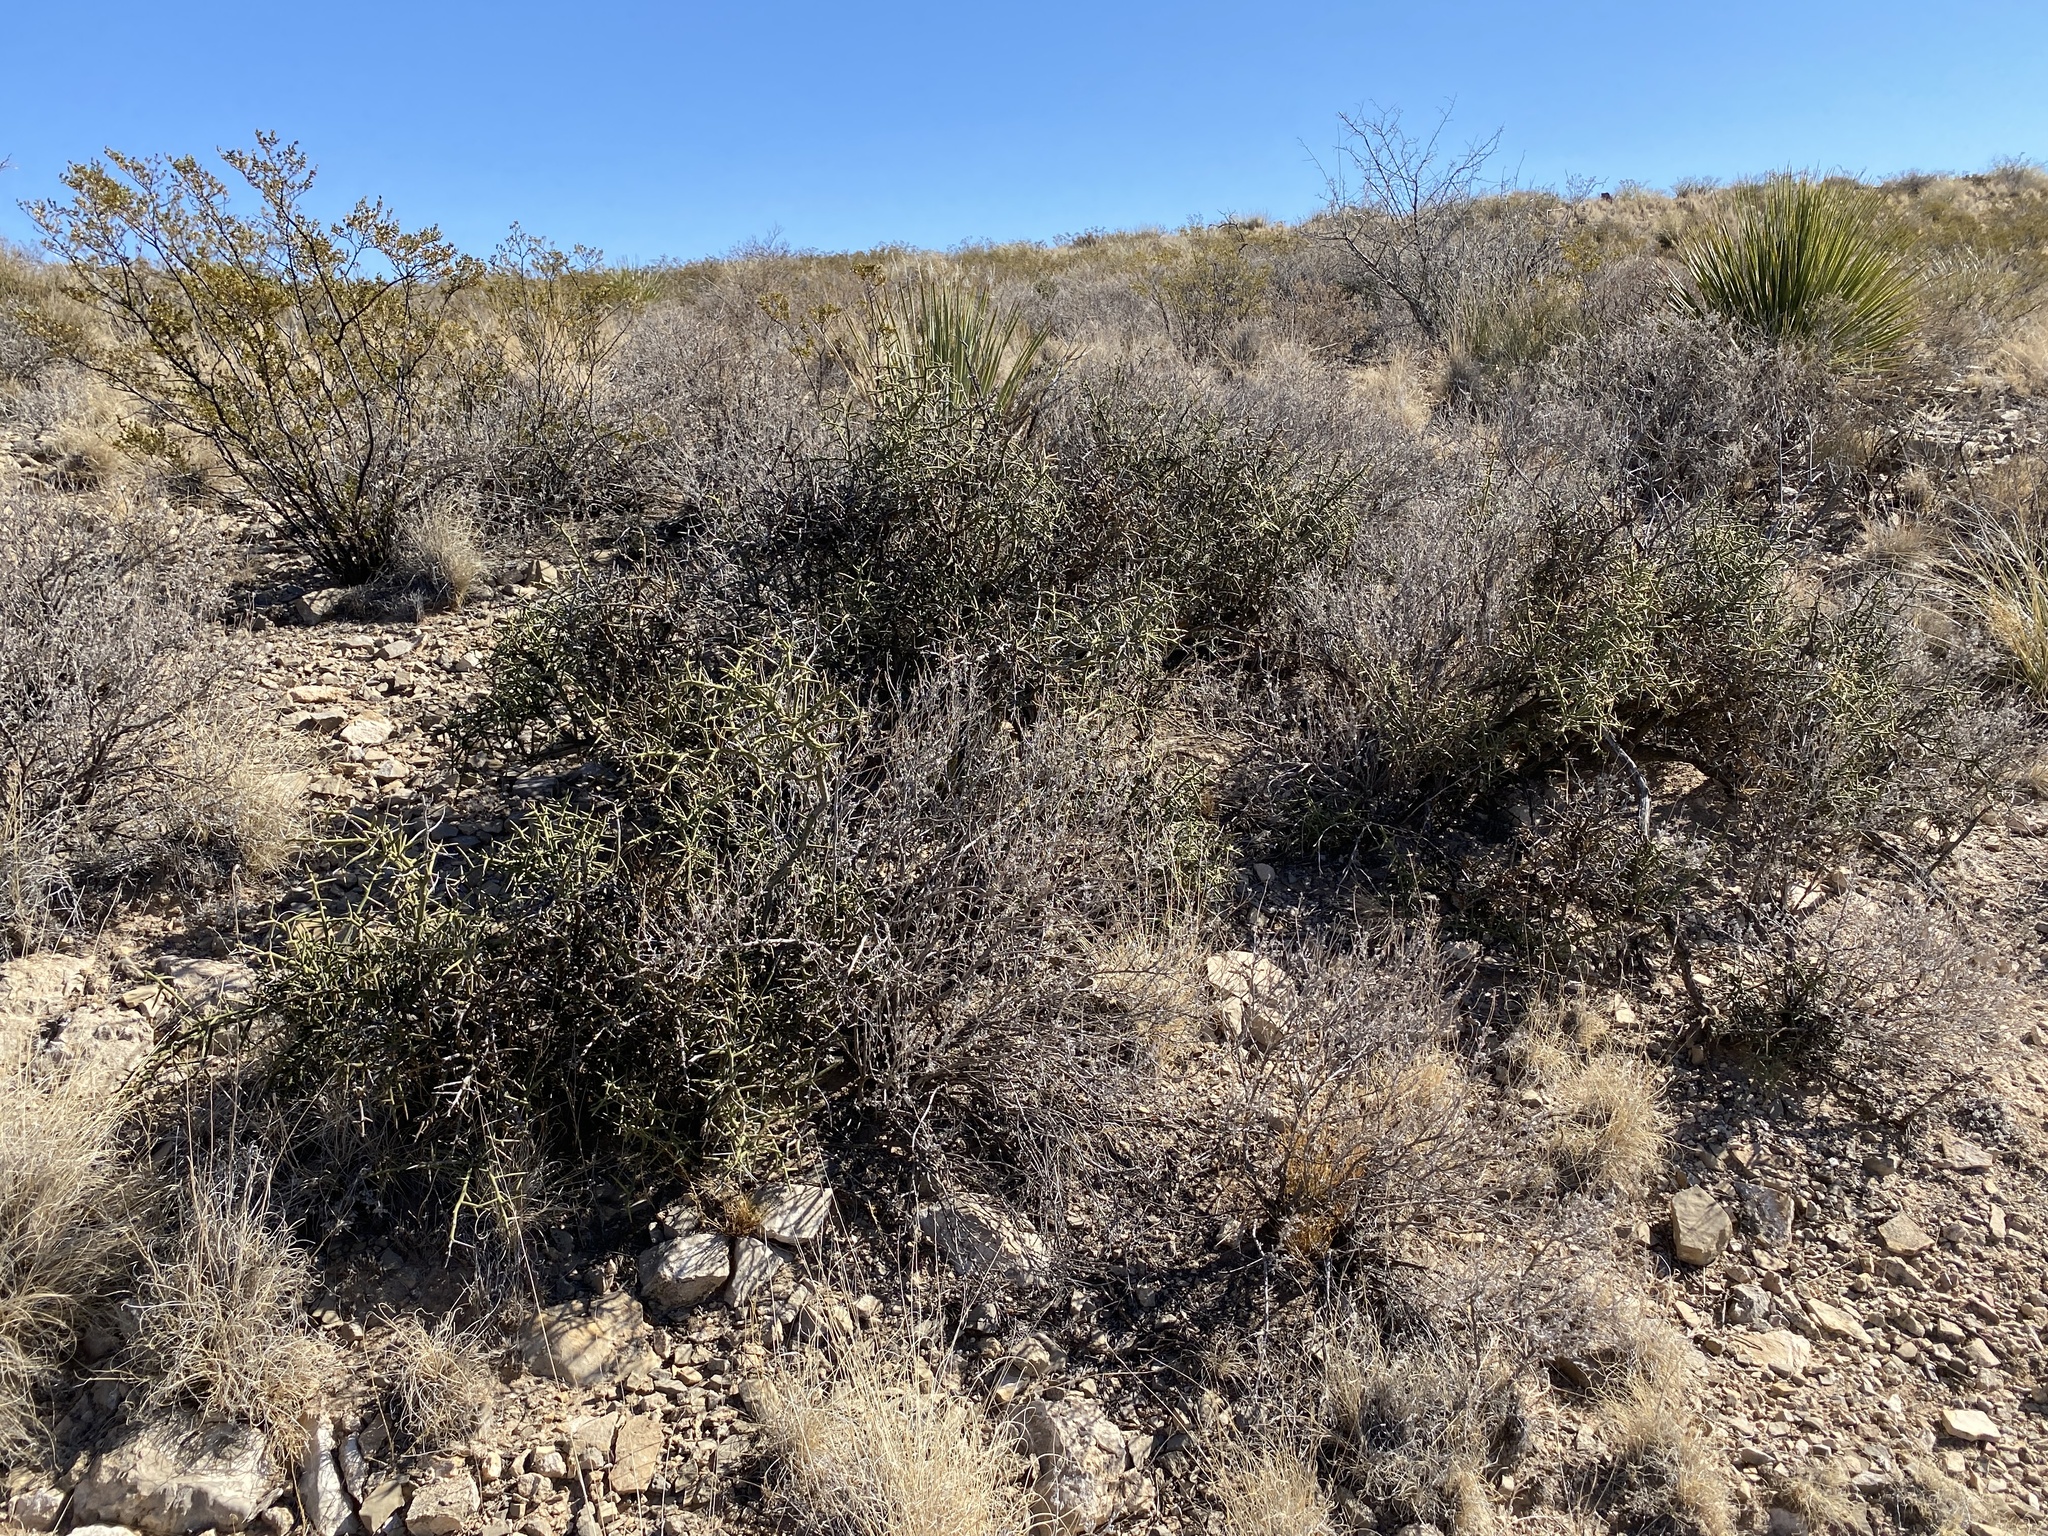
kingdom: Plantae
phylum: Tracheophyta
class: Magnoliopsida
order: Brassicales
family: Koeberliniaceae
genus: Koeberlinia
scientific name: Koeberlinia spinosa
